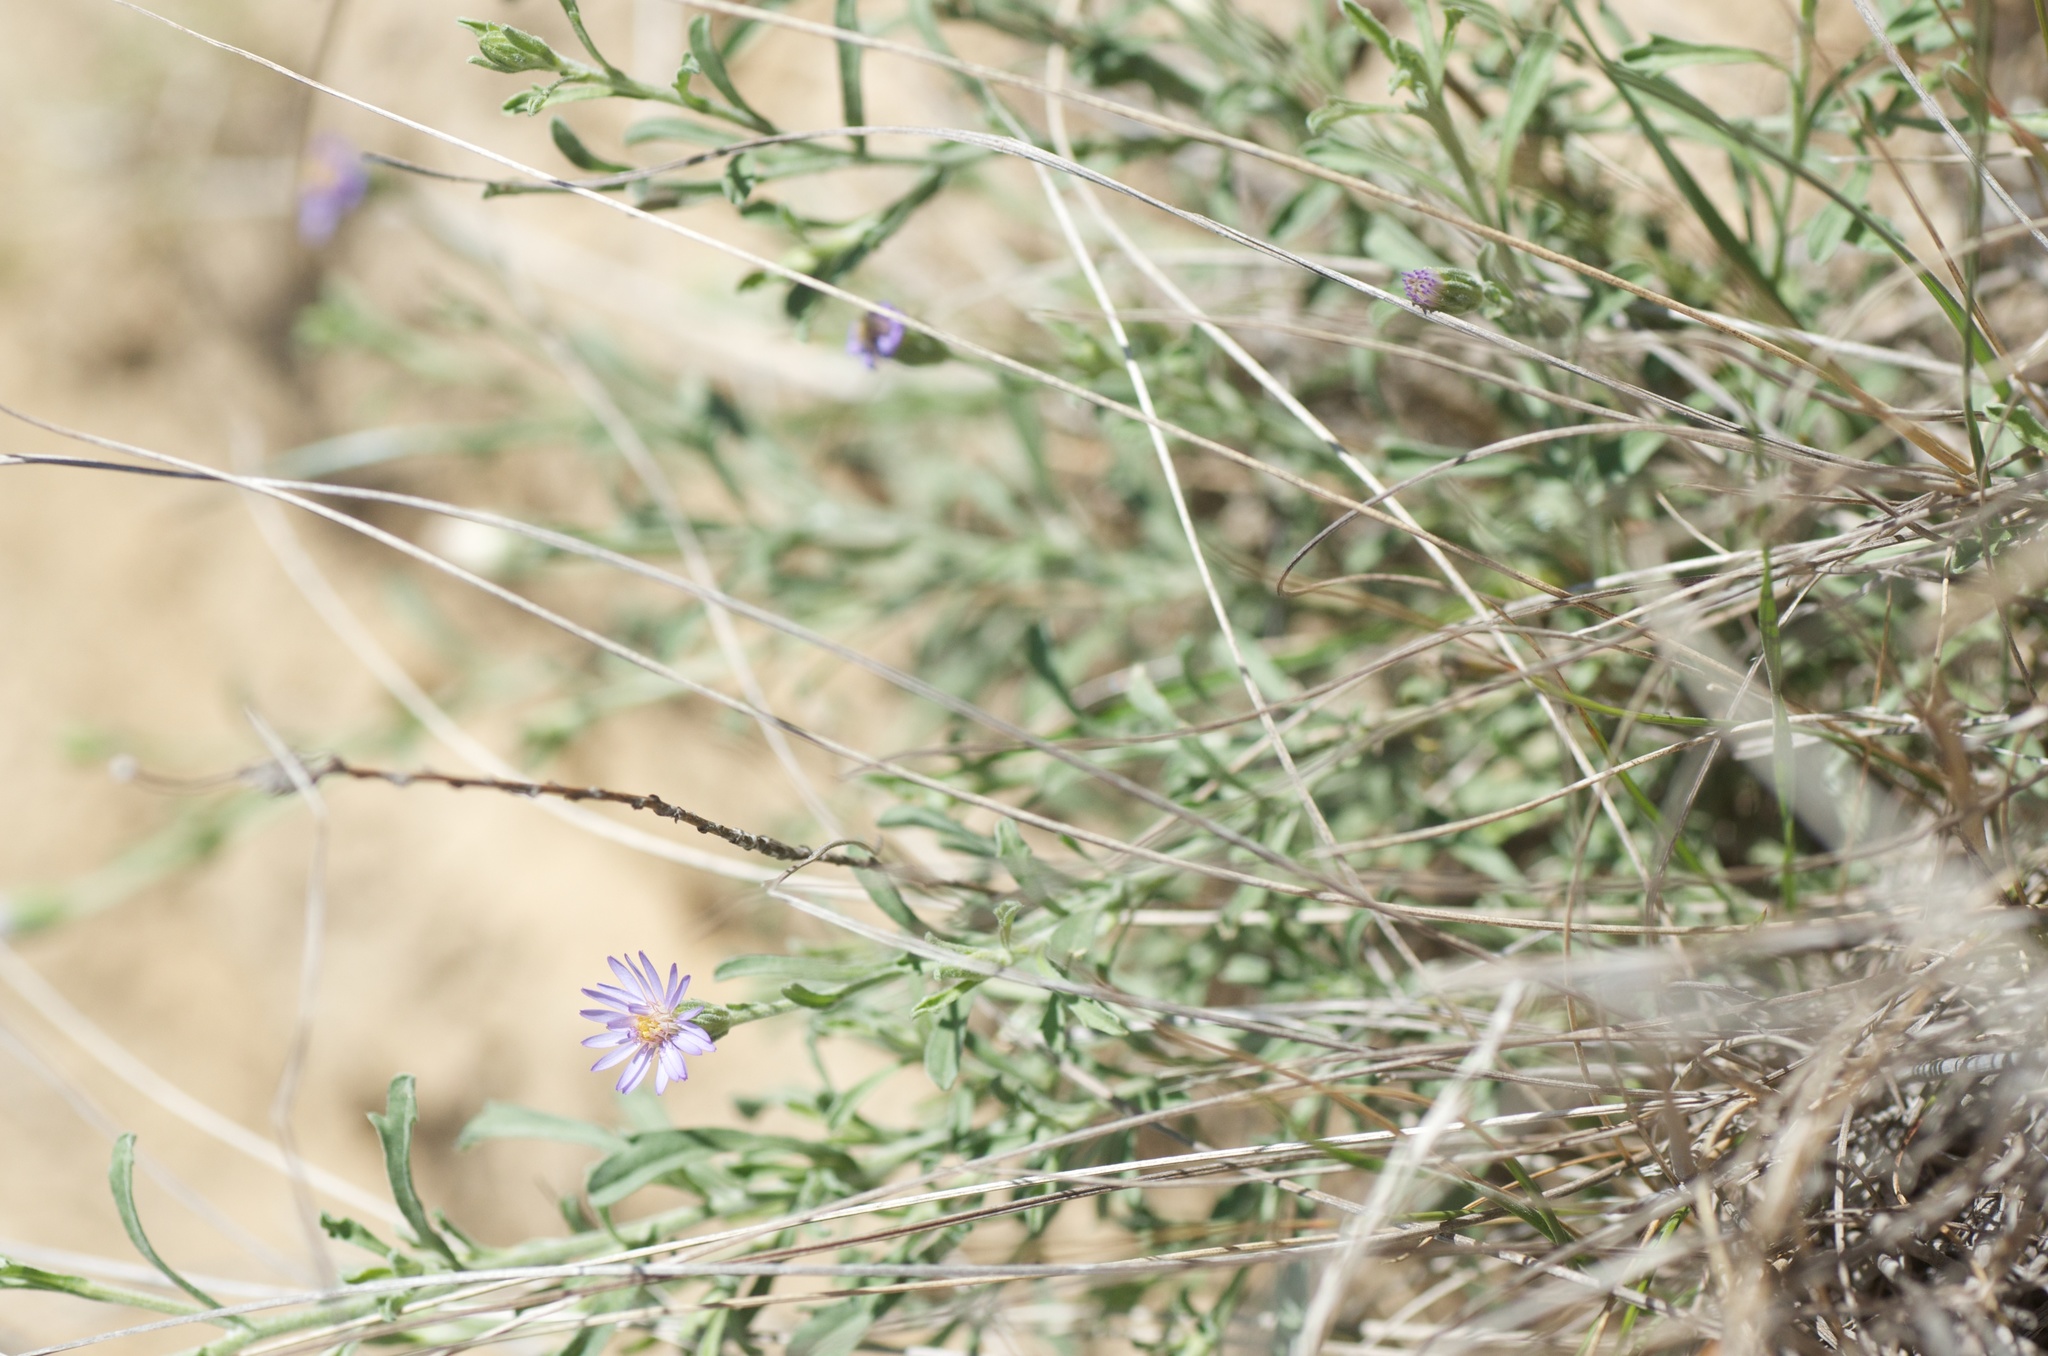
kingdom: Plantae
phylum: Tracheophyta
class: Magnoliopsida
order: Asterales
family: Asteraceae
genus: Vittadinia
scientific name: Vittadinia gracilis
